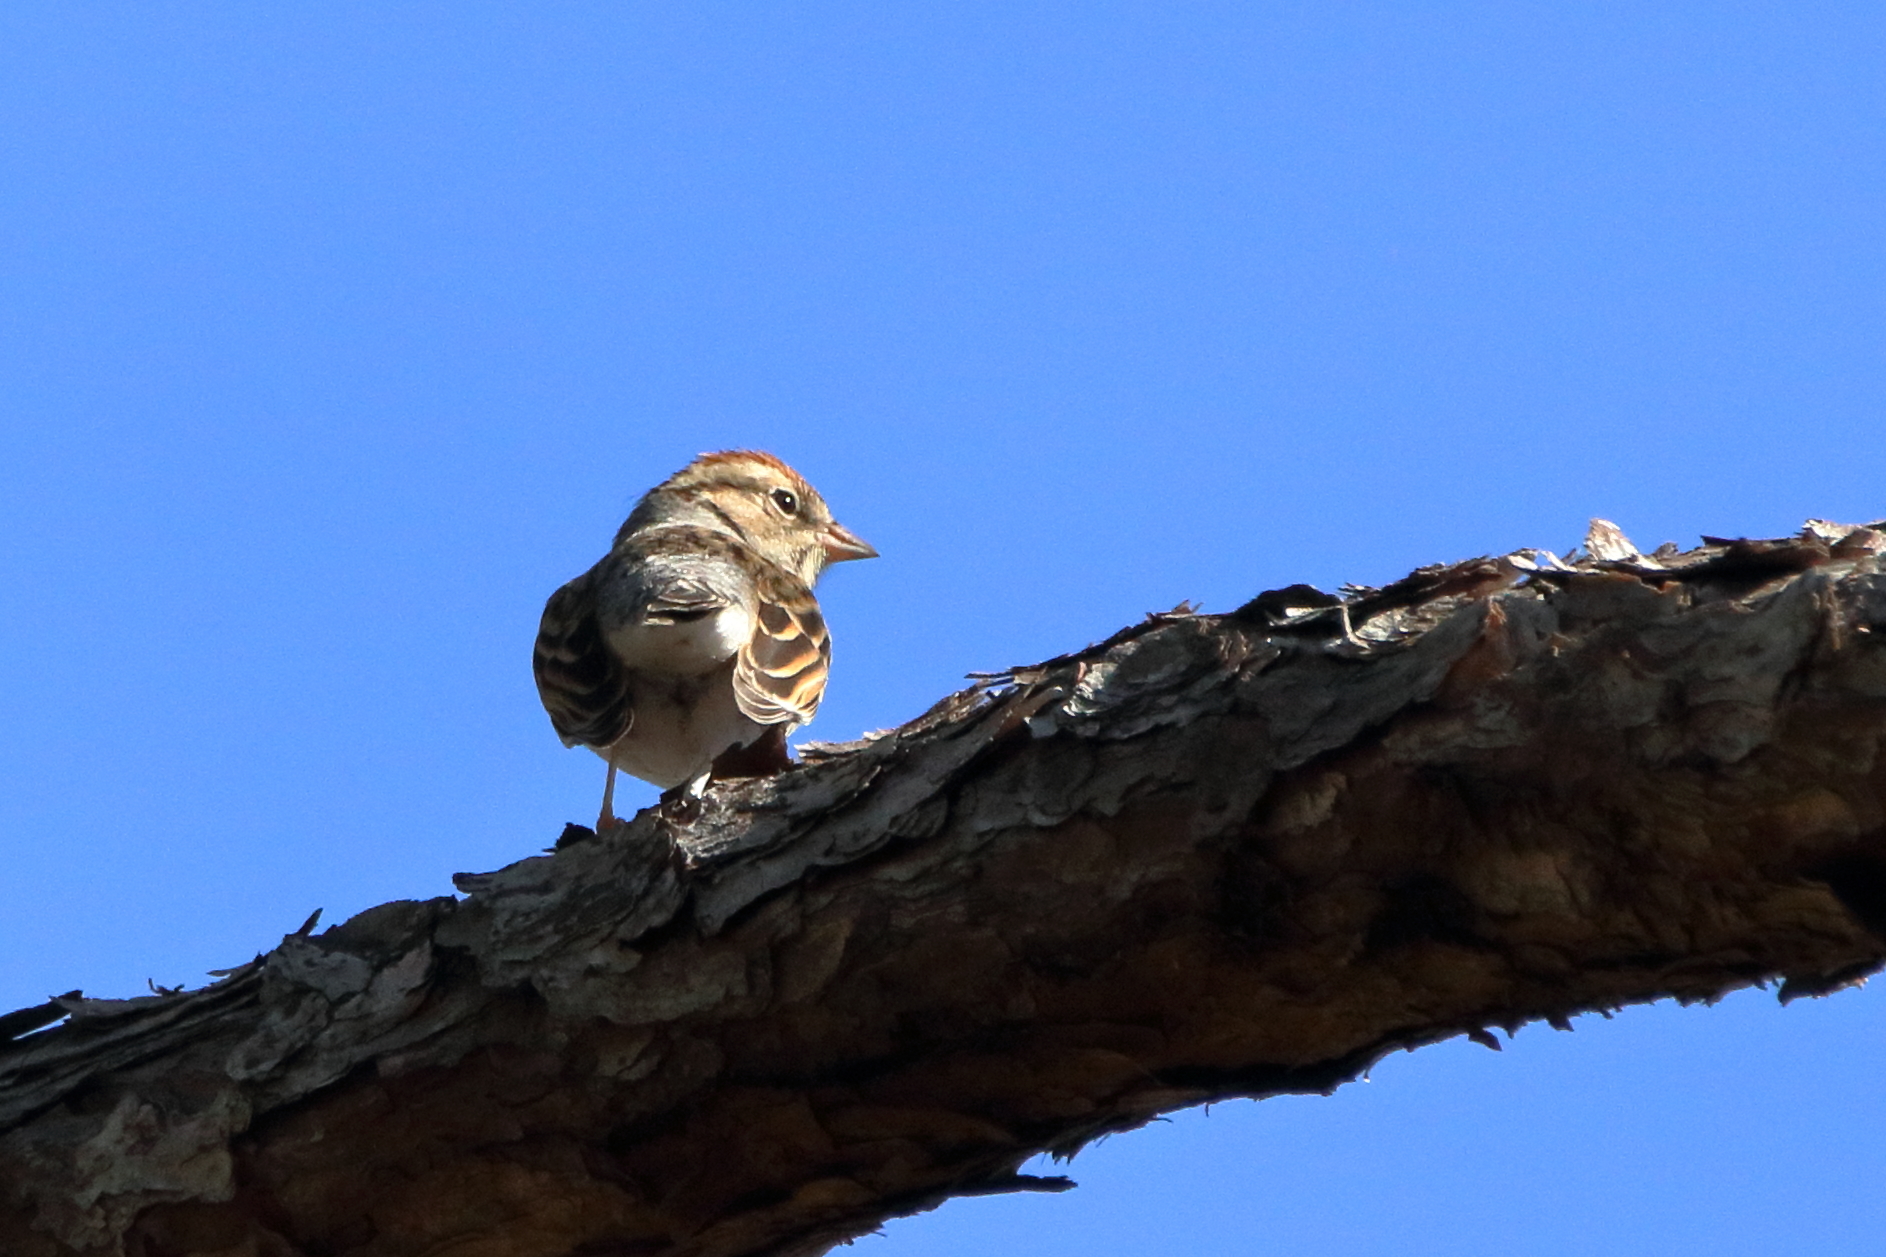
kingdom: Animalia
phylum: Chordata
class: Aves
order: Passeriformes
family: Passerellidae
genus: Spizella
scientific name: Spizella passerina
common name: Chipping sparrow
